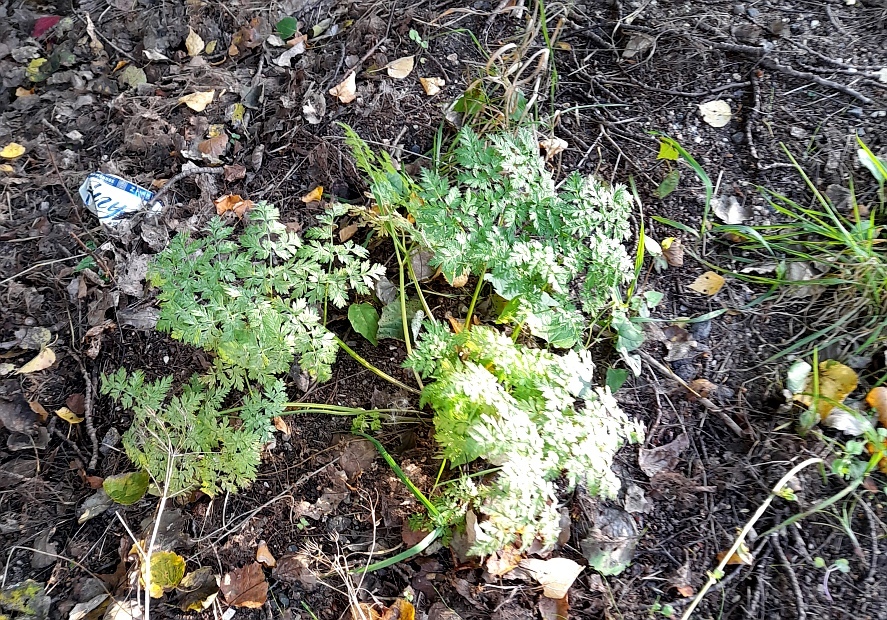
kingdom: Plantae
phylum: Tracheophyta
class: Magnoliopsida
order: Apiales
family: Apiaceae
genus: Anthriscus
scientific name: Anthriscus sylvestris
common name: Cow parsley
